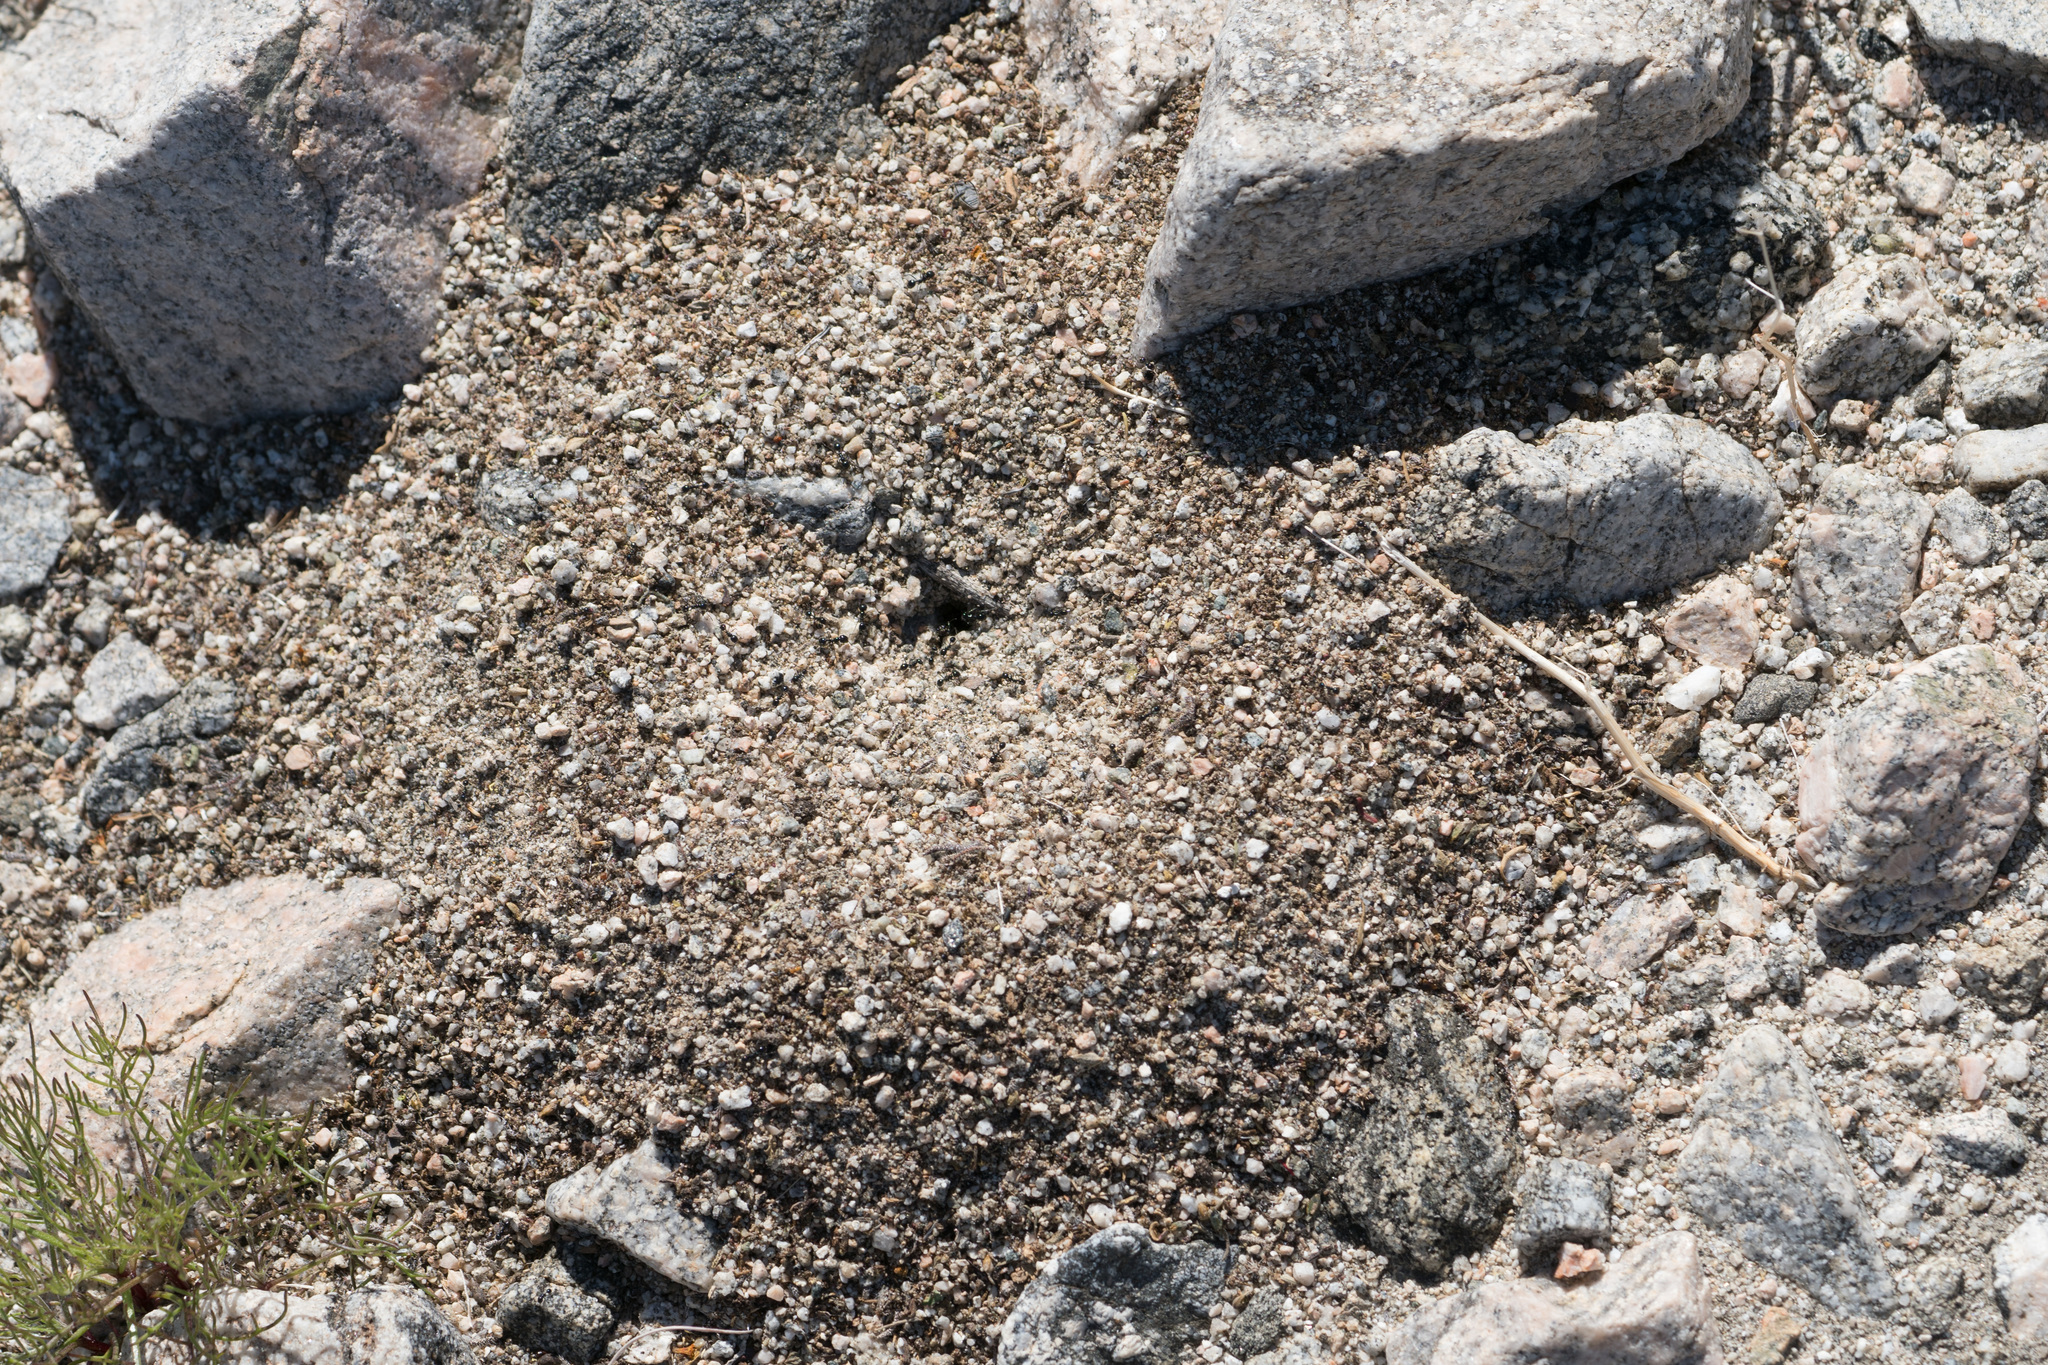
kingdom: Animalia
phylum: Arthropoda
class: Insecta
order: Hymenoptera
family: Formicidae
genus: Messor
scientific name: Messor pergandei
